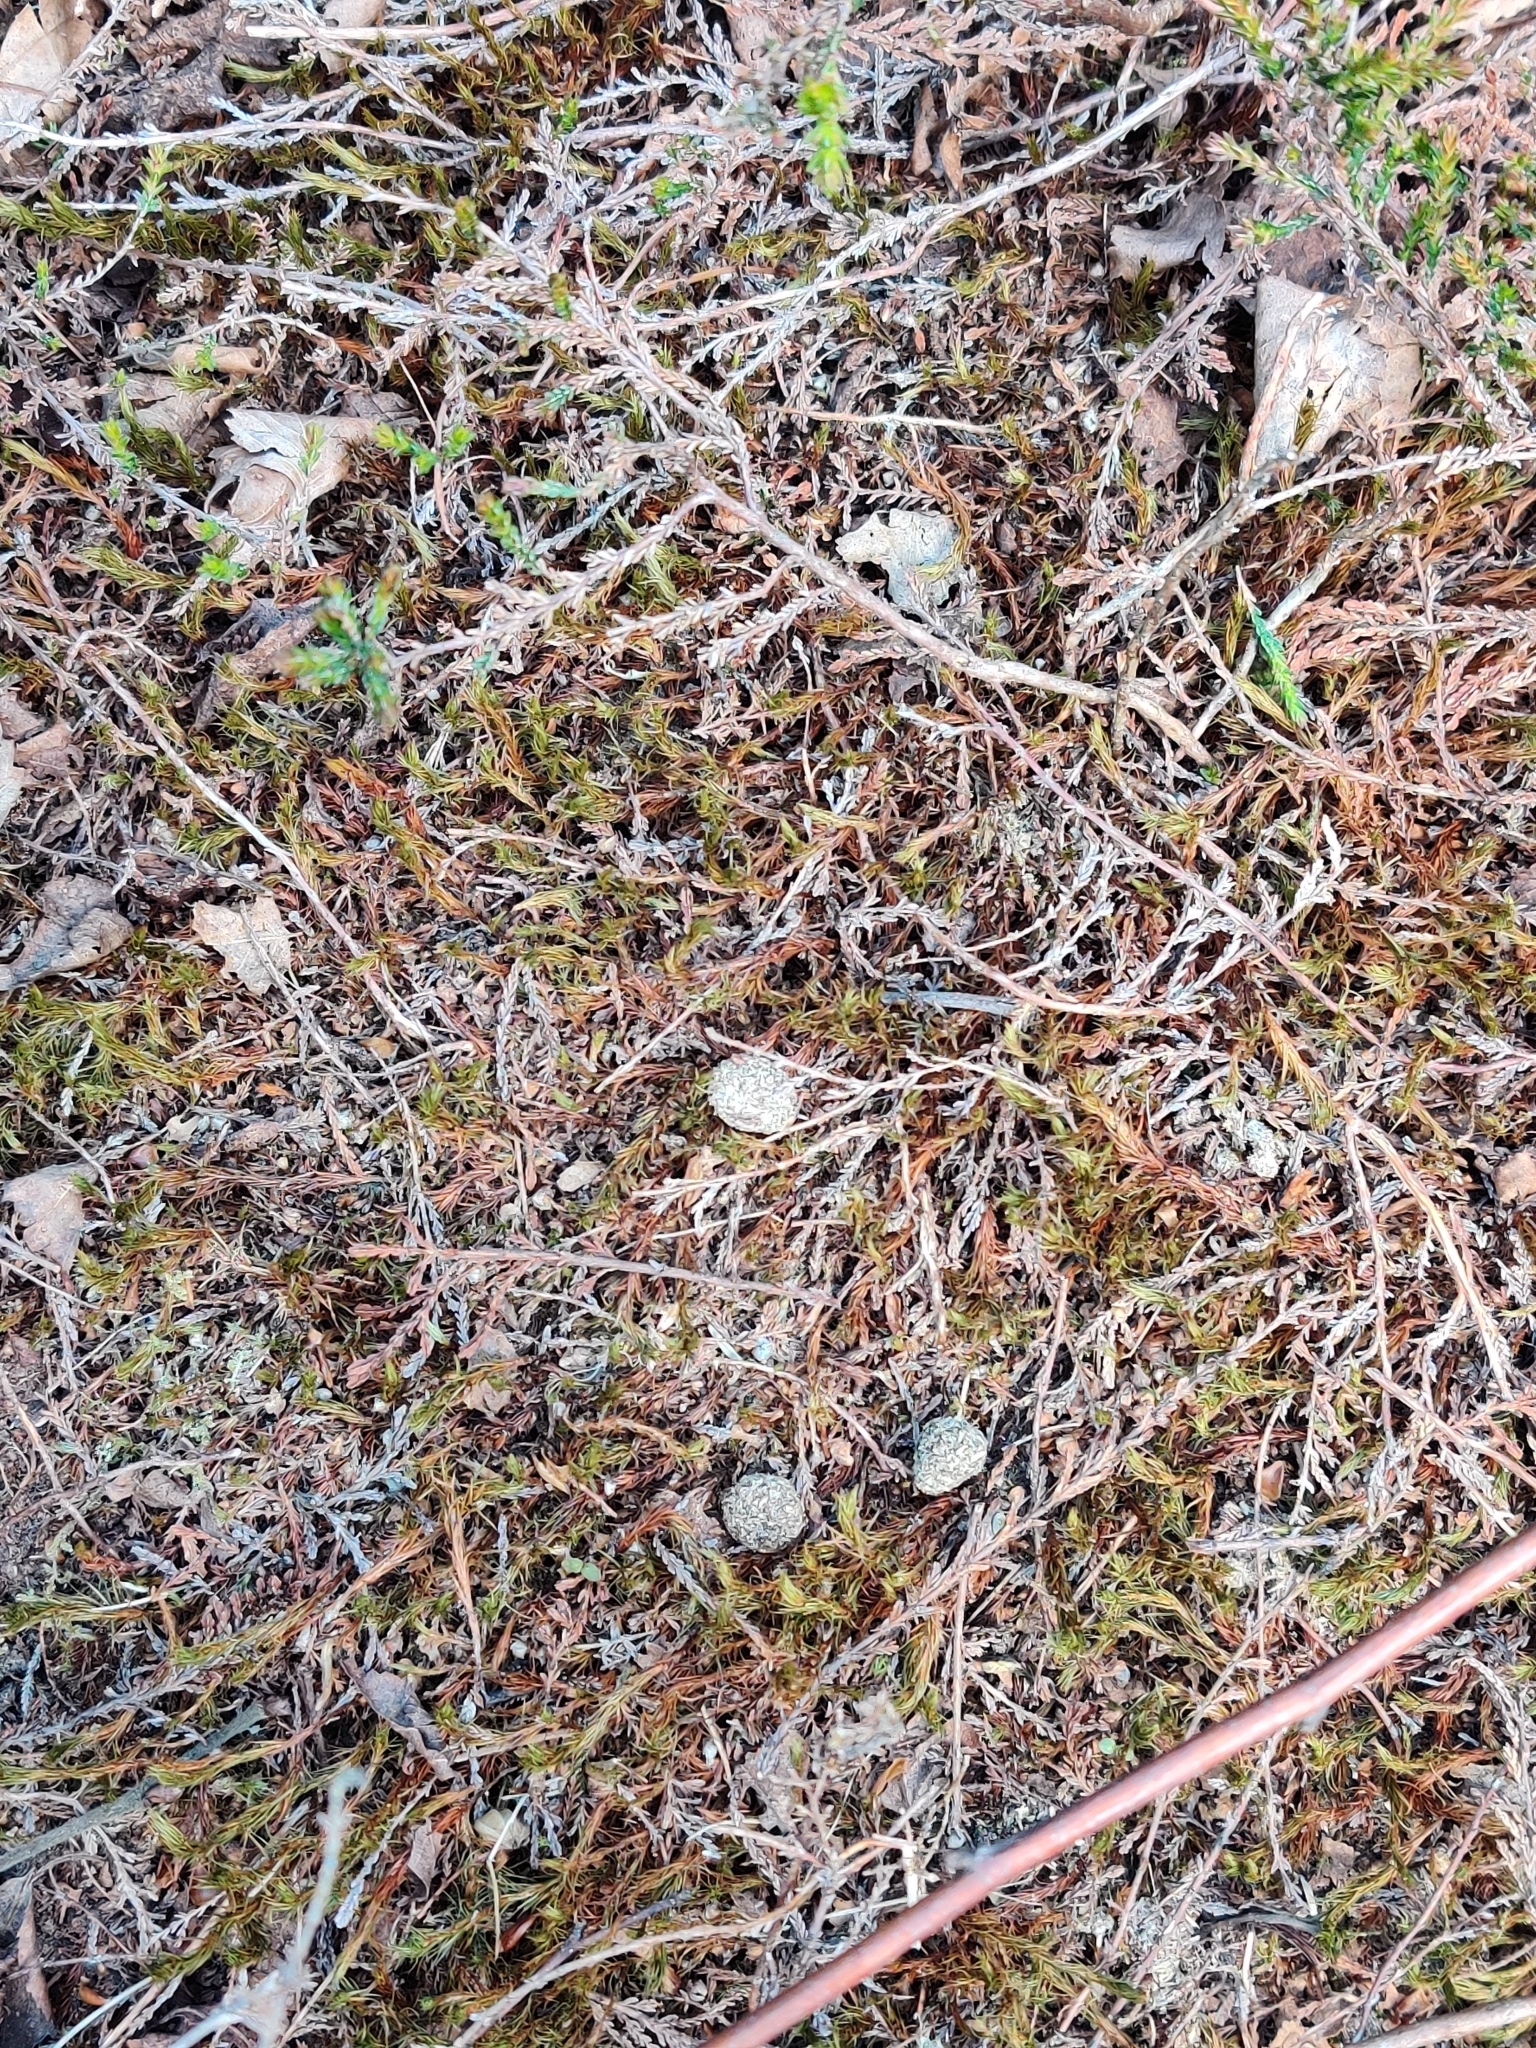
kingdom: Animalia
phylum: Chordata
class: Mammalia
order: Lagomorpha
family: Leporidae
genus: Oryctolagus
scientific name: Oryctolagus cuniculus
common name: European rabbit
